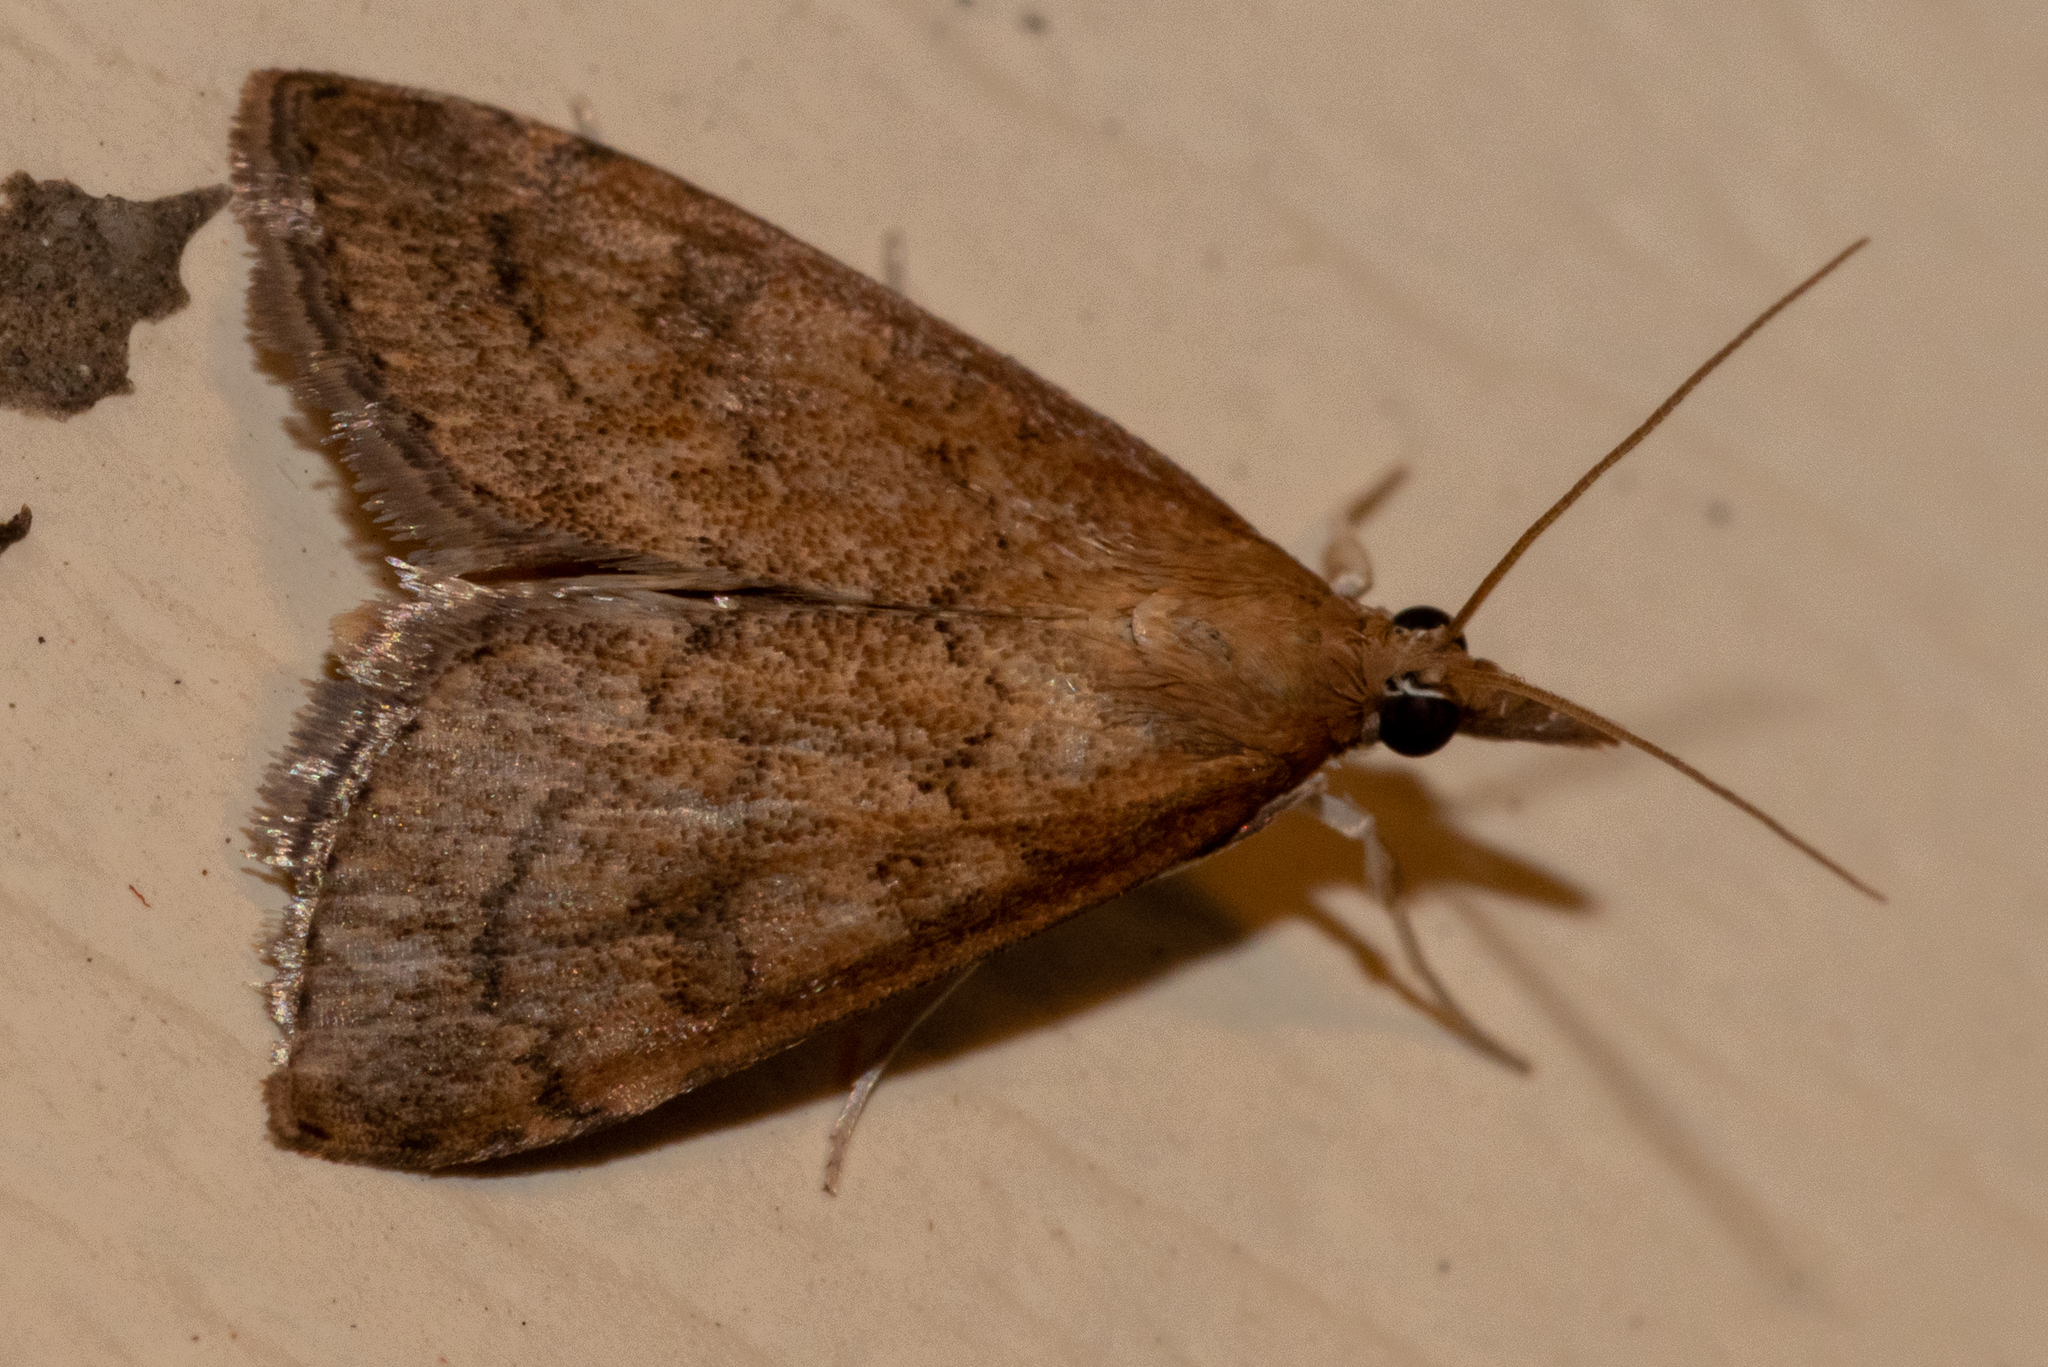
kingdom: Animalia
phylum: Arthropoda
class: Insecta
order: Lepidoptera
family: Crambidae
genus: Udea
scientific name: Udea rubigalis
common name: Celery leaftier moth
